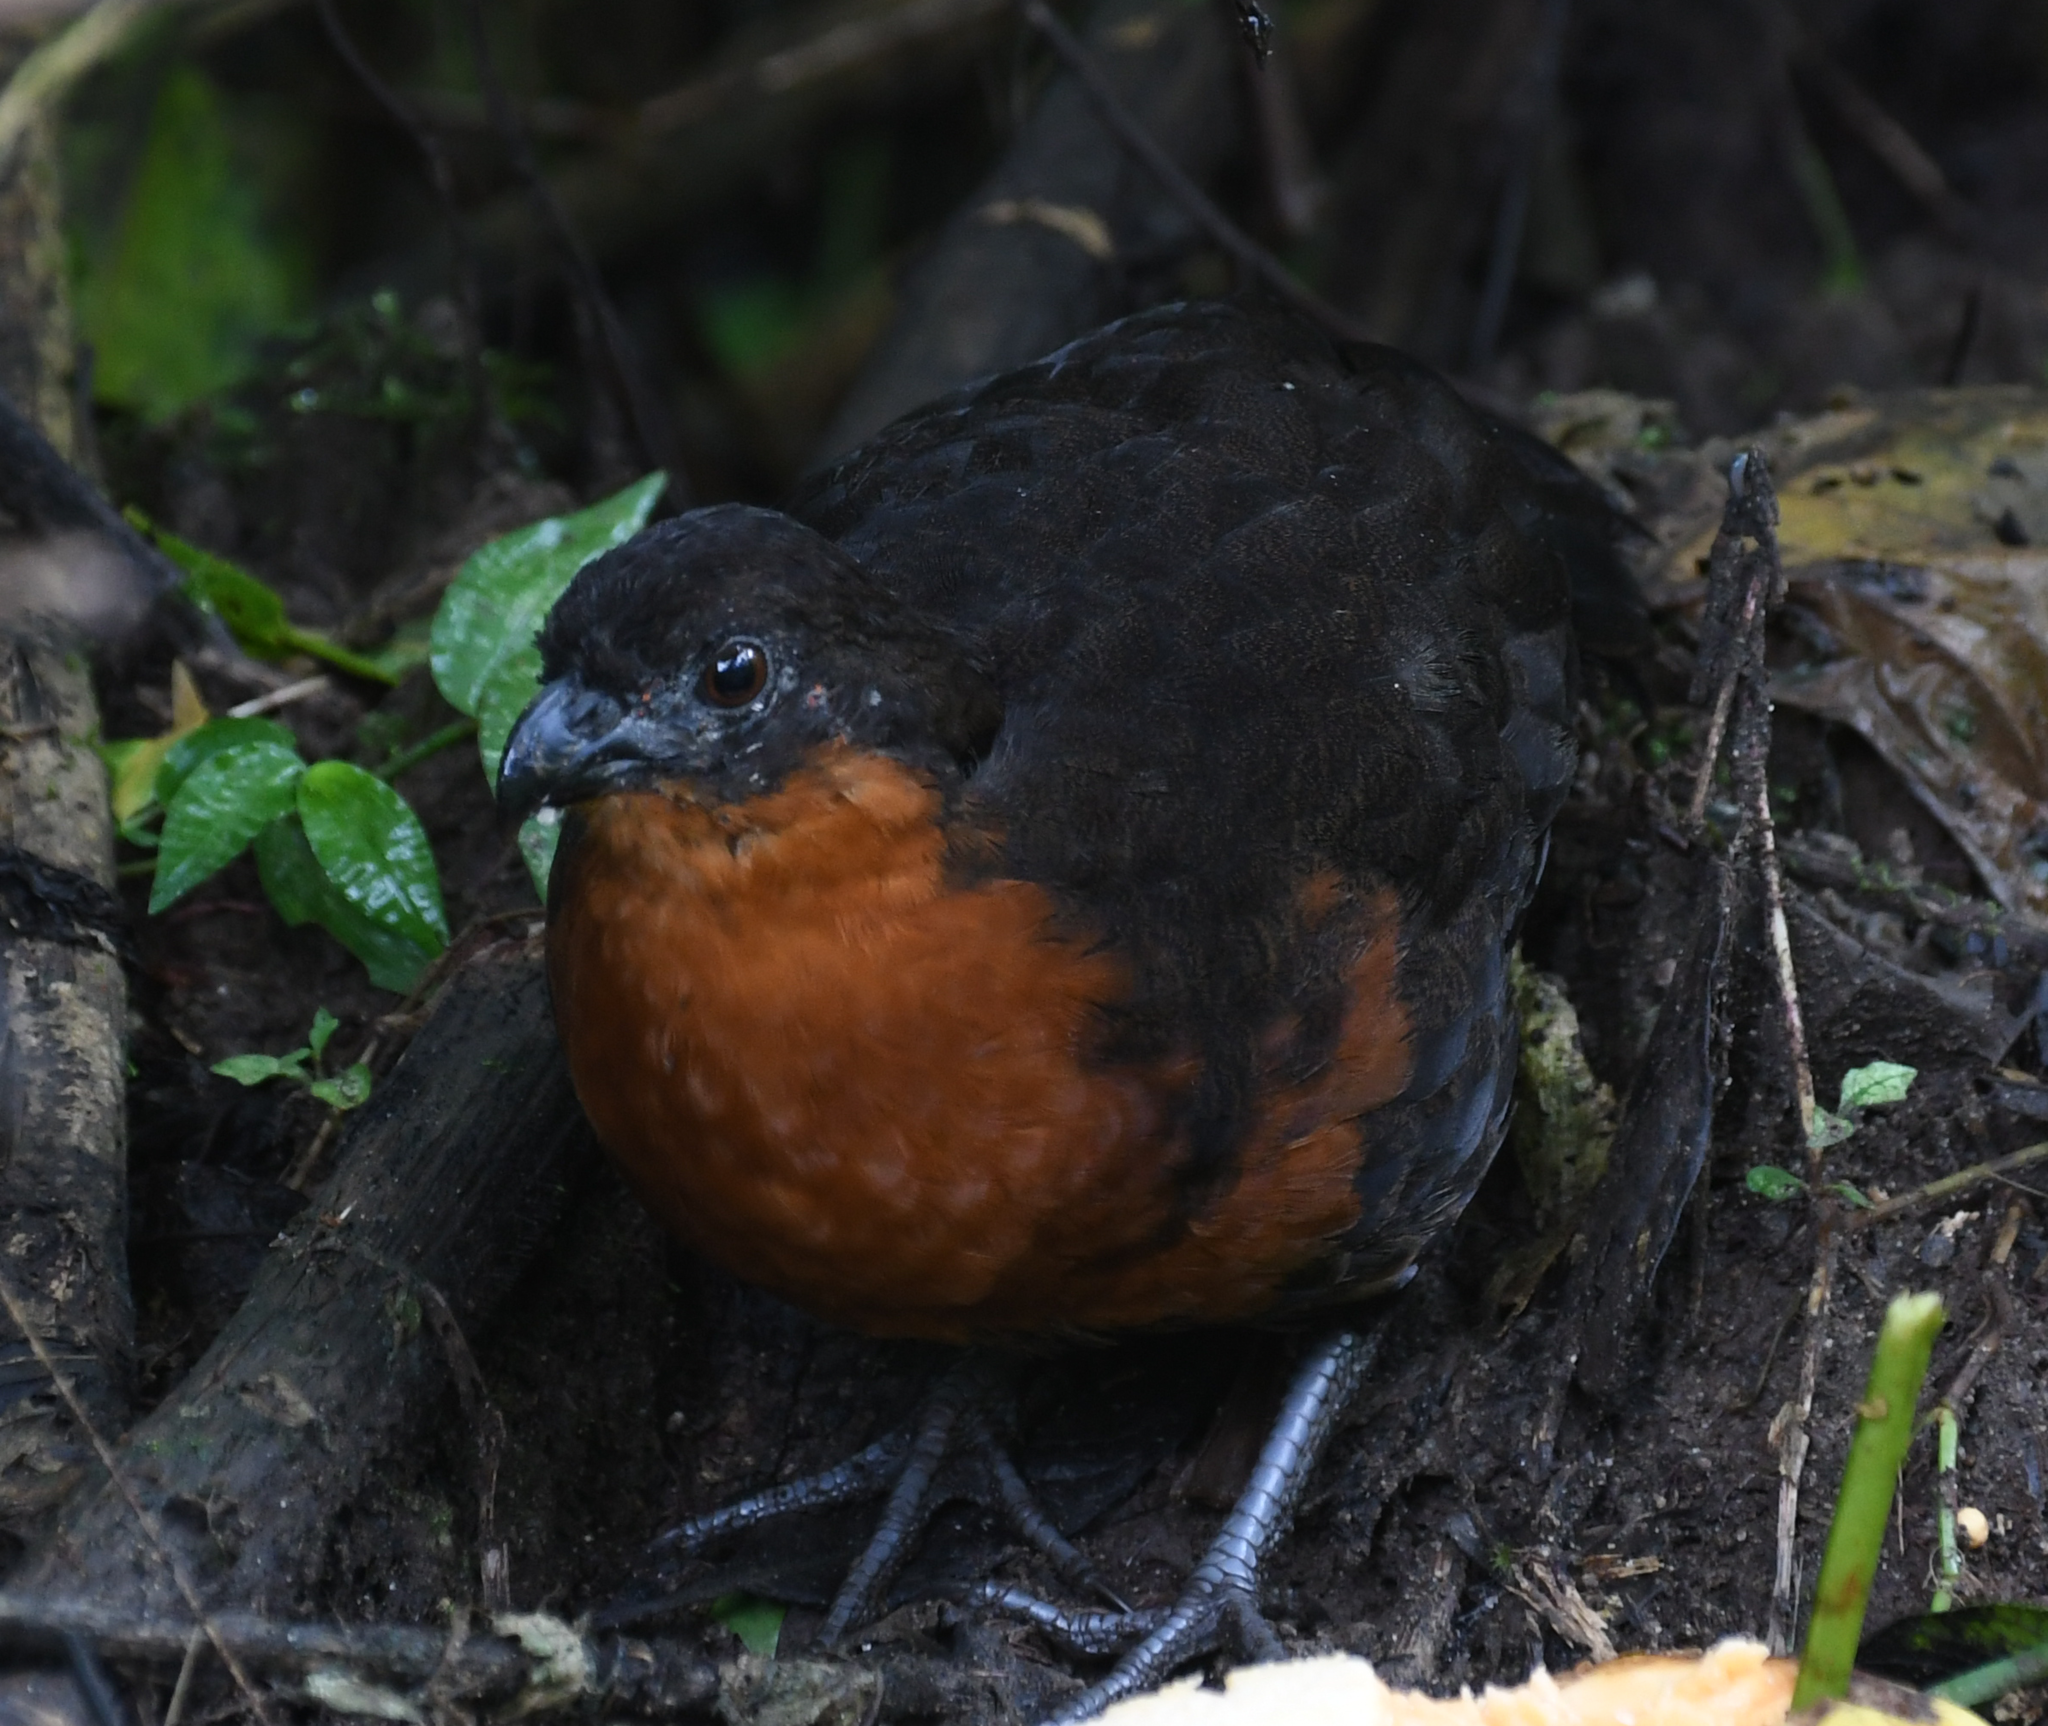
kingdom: Animalia
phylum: Chordata
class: Aves
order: Galliformes
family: Odontophoridae
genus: Odontophorus
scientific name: Odontophorus melanonotus
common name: Dark-backed wood-quail
